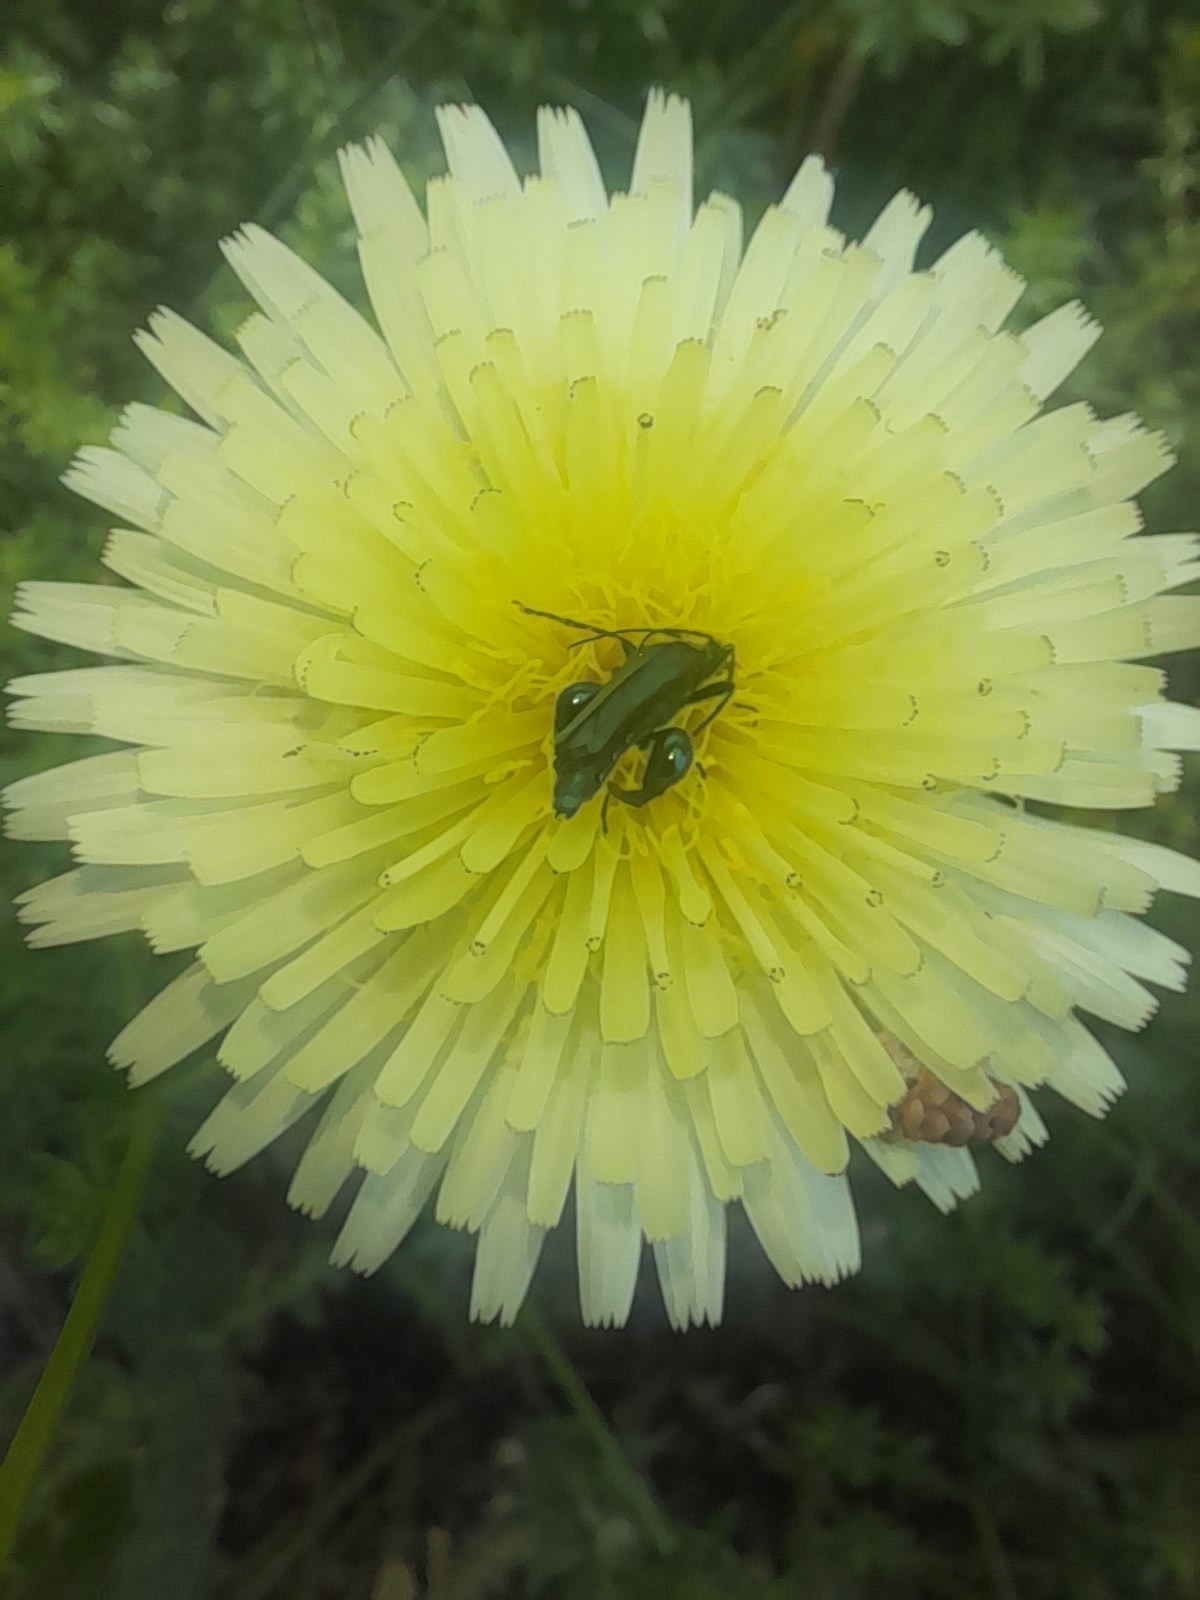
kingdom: Animalia
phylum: Arthropoda
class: Insecta
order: Coleoptera
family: Oedemeridae
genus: Oedemera
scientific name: Oedemera nobilis
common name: Swollen-thighed beetle
